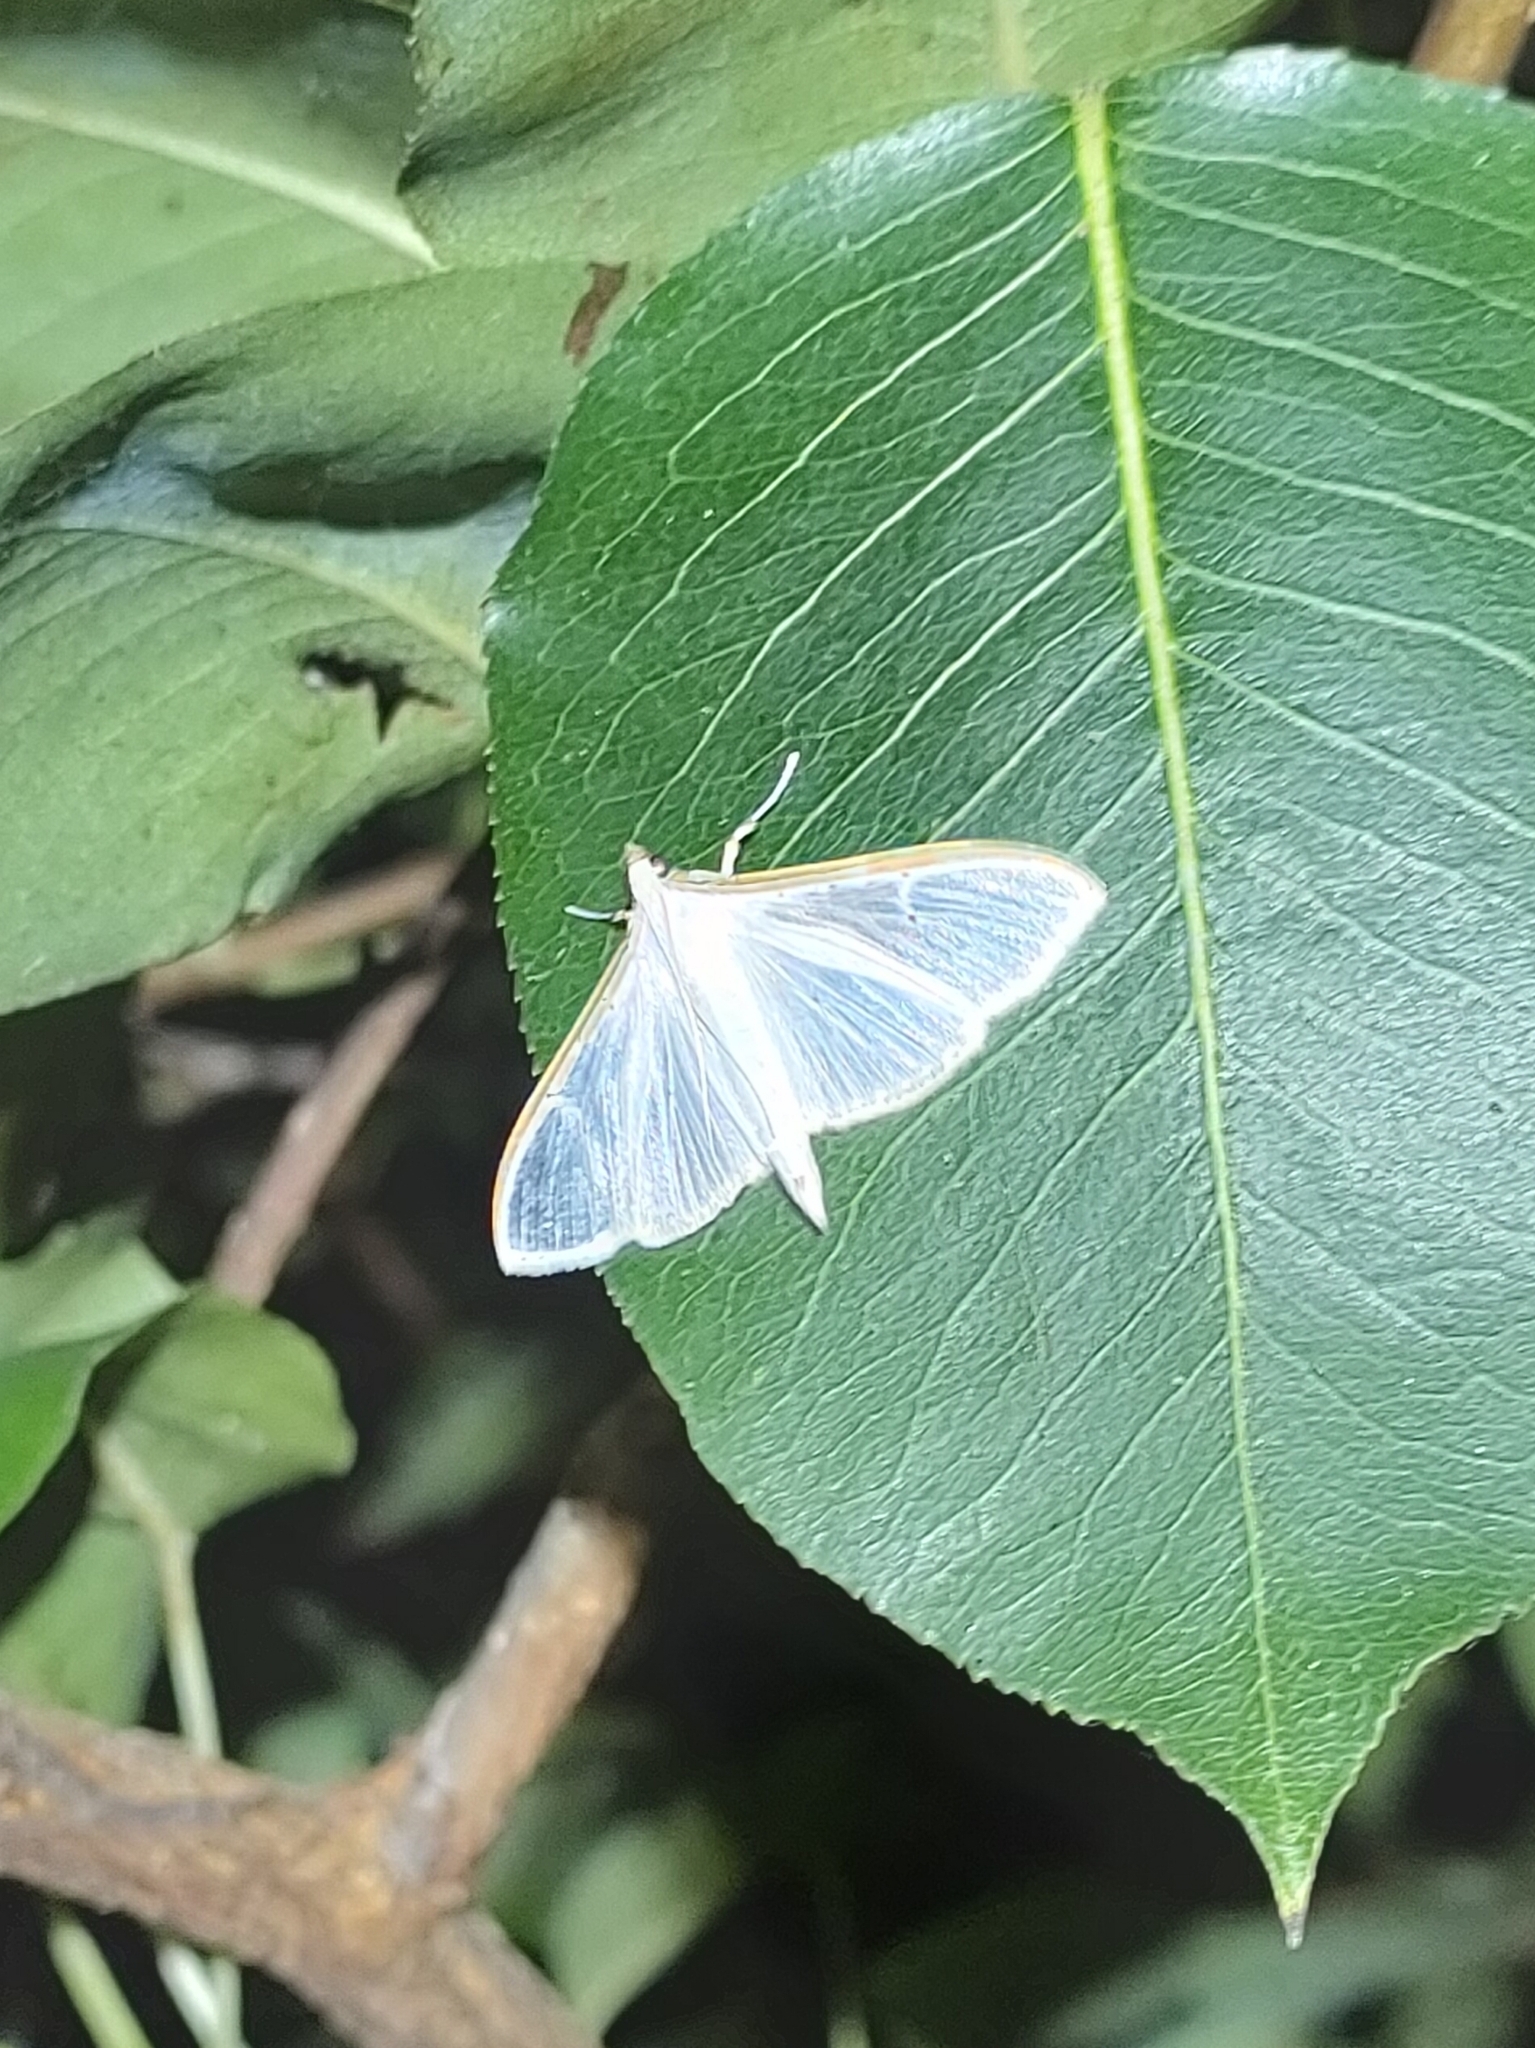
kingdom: Animalia
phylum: Arthropoda
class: Insecta
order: Lepidoptera
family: Crambidae
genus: Palpita
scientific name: Palpita vitrealis
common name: Olive-tree pearl
